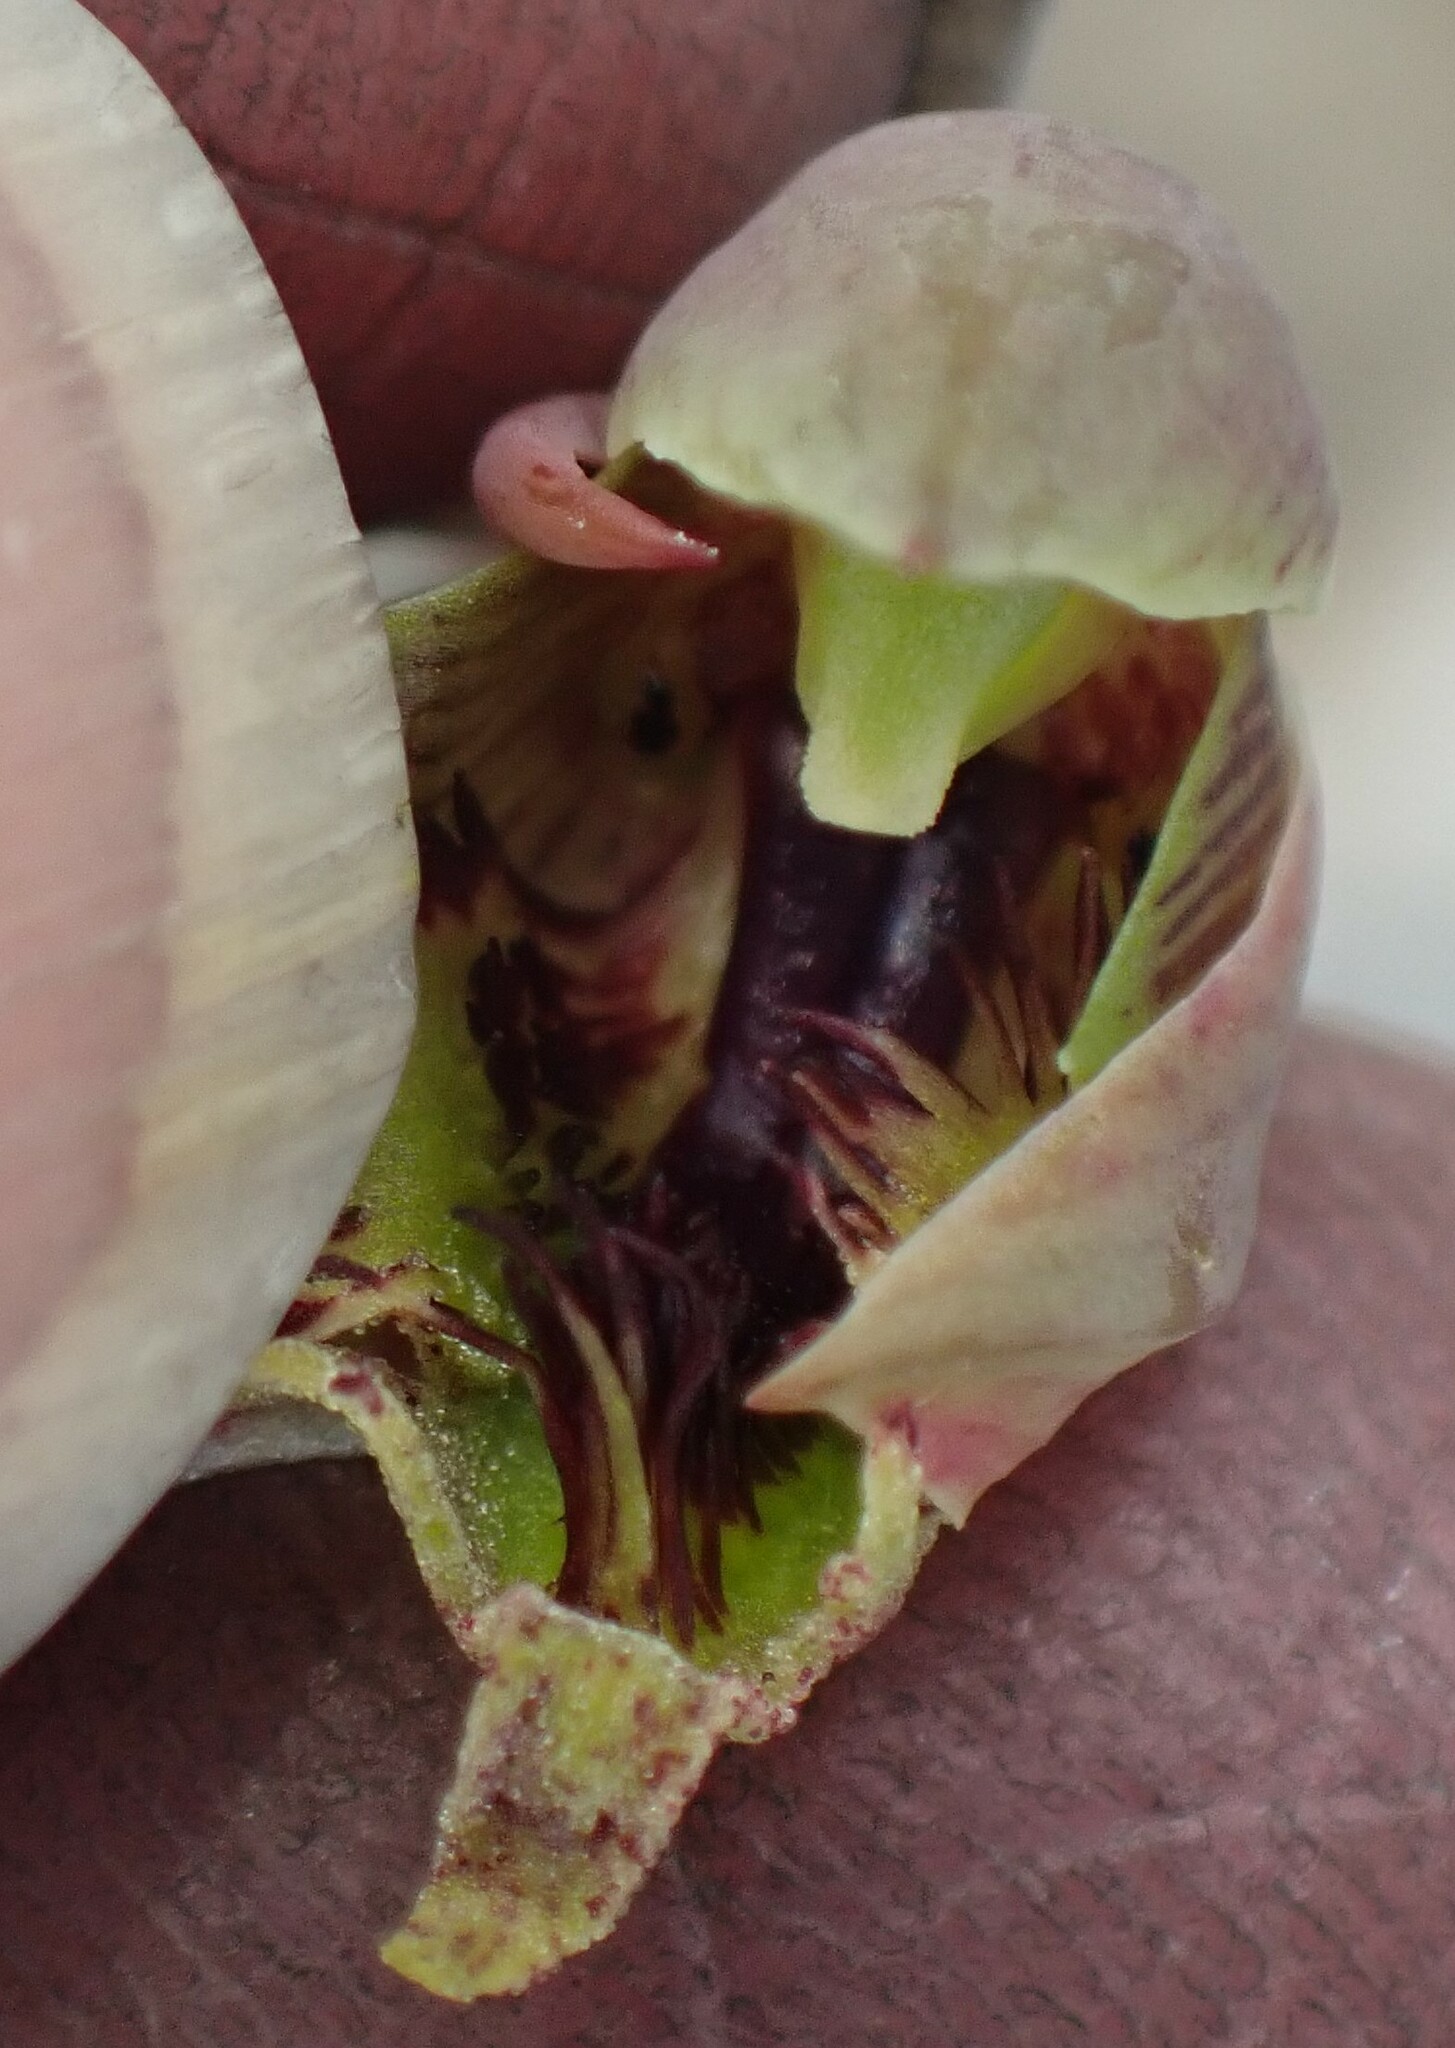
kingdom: Plantae
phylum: Tracheophyta
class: Liliopsida
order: Asparagales
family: Orchidaceae
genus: Calochilus
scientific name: Calochilus herbaceus
